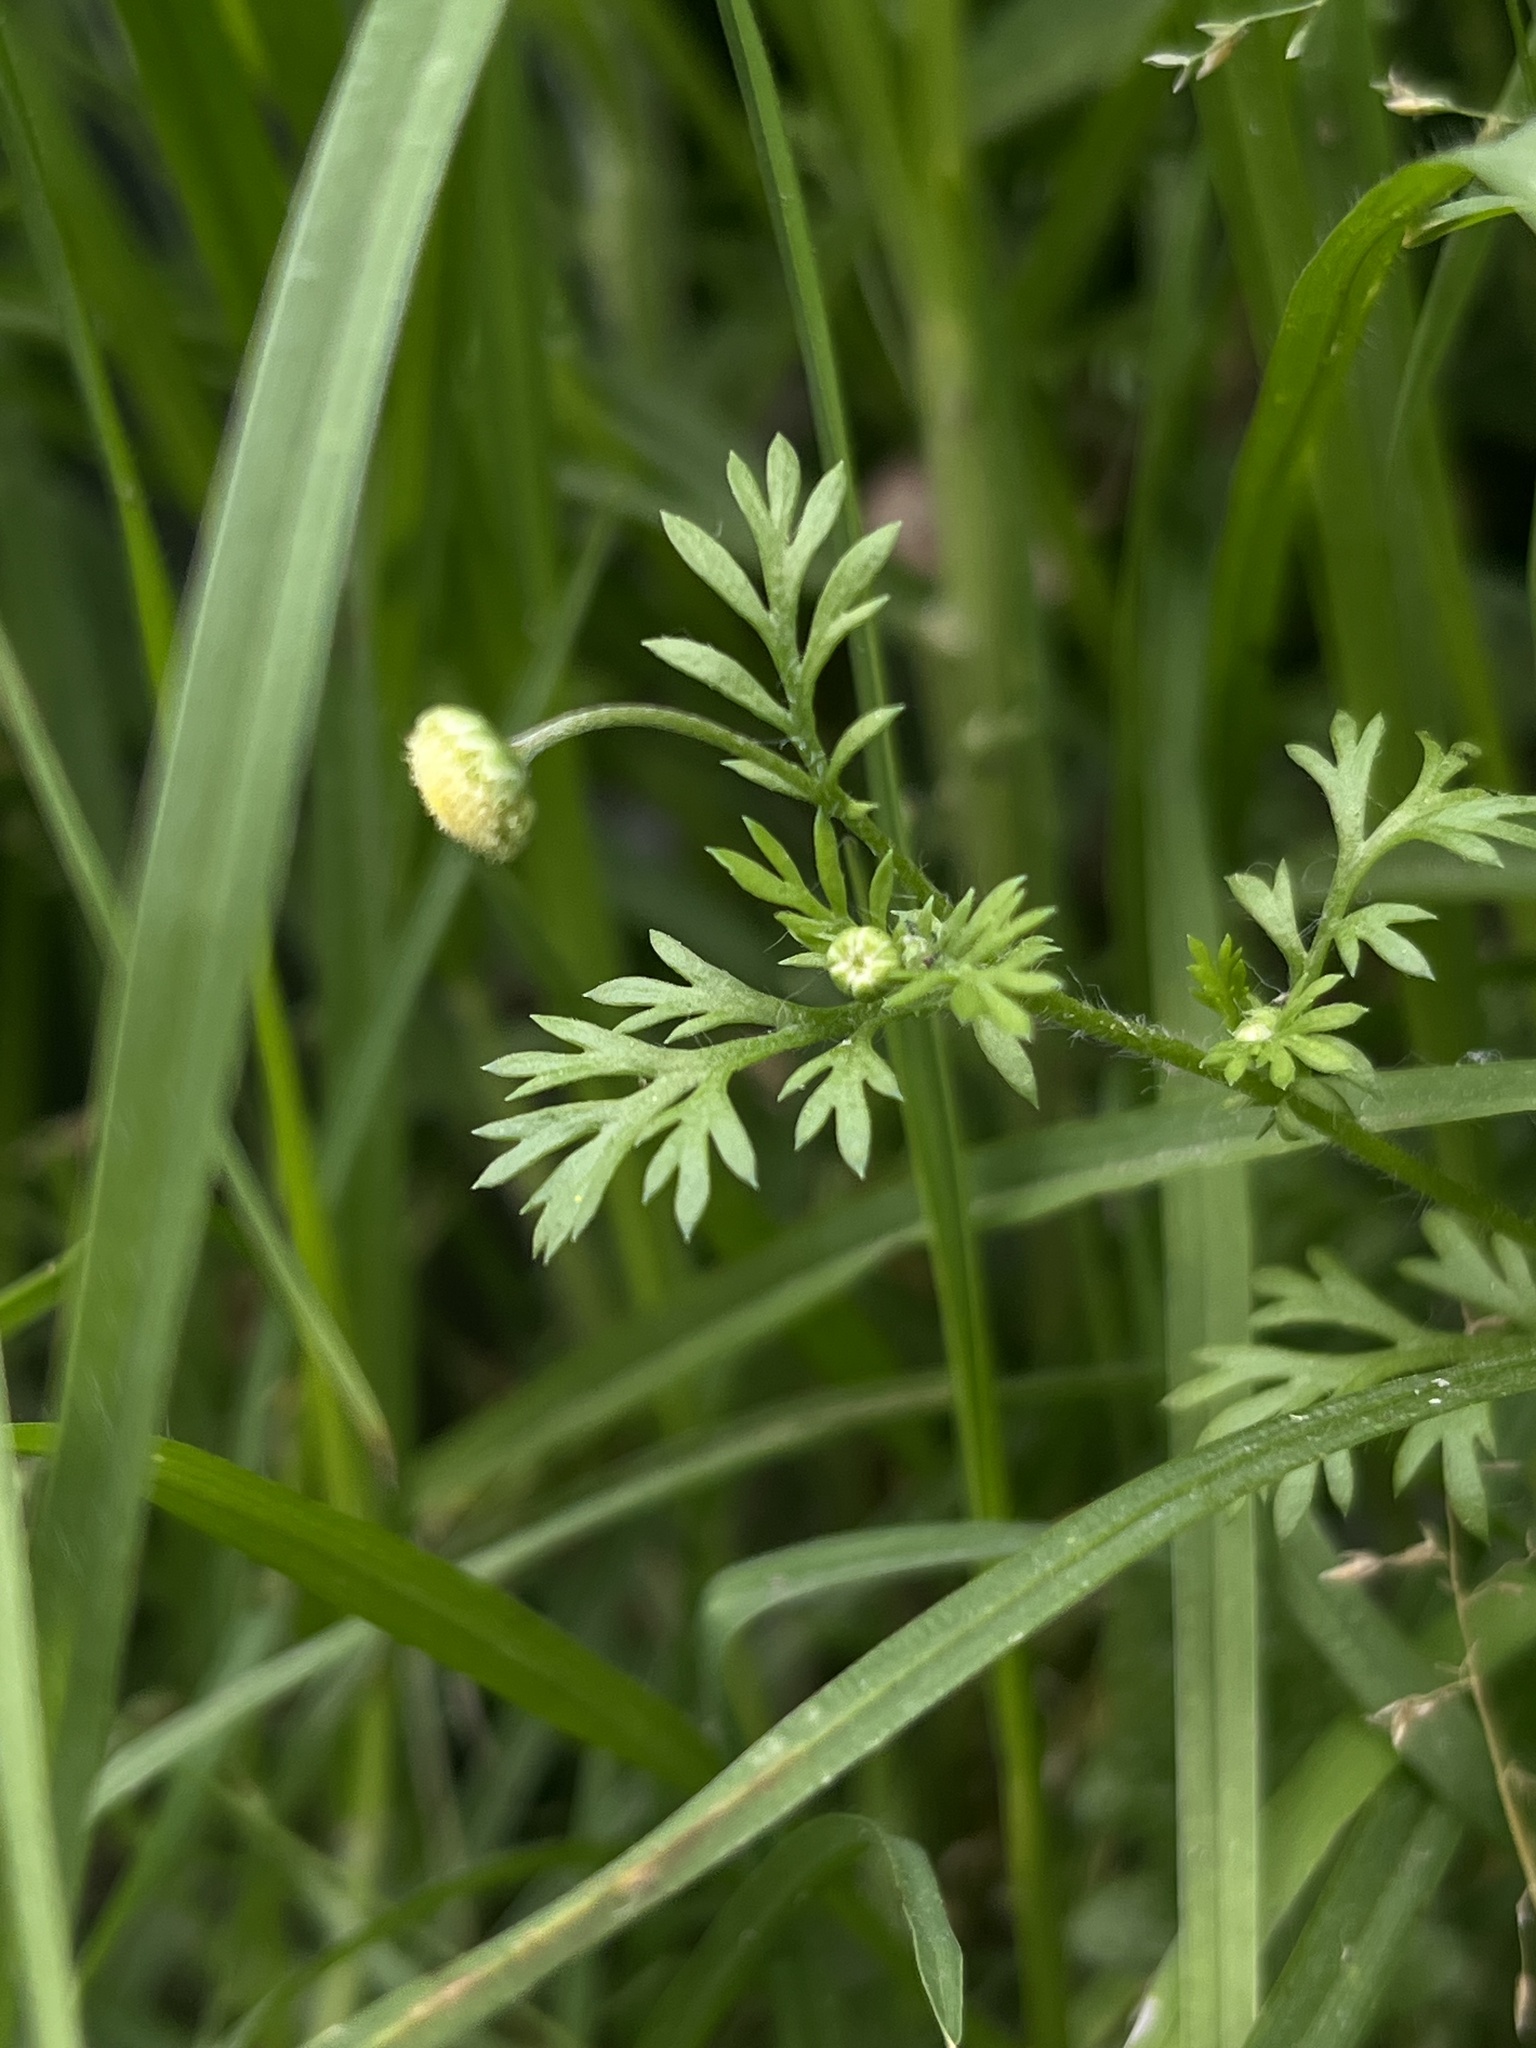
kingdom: Plantae
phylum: Tracheophyta
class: Magnoliopsida
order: Asterales
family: Asteraceae
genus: Cotula
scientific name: Cotula australis
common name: Australian waterbuttons
